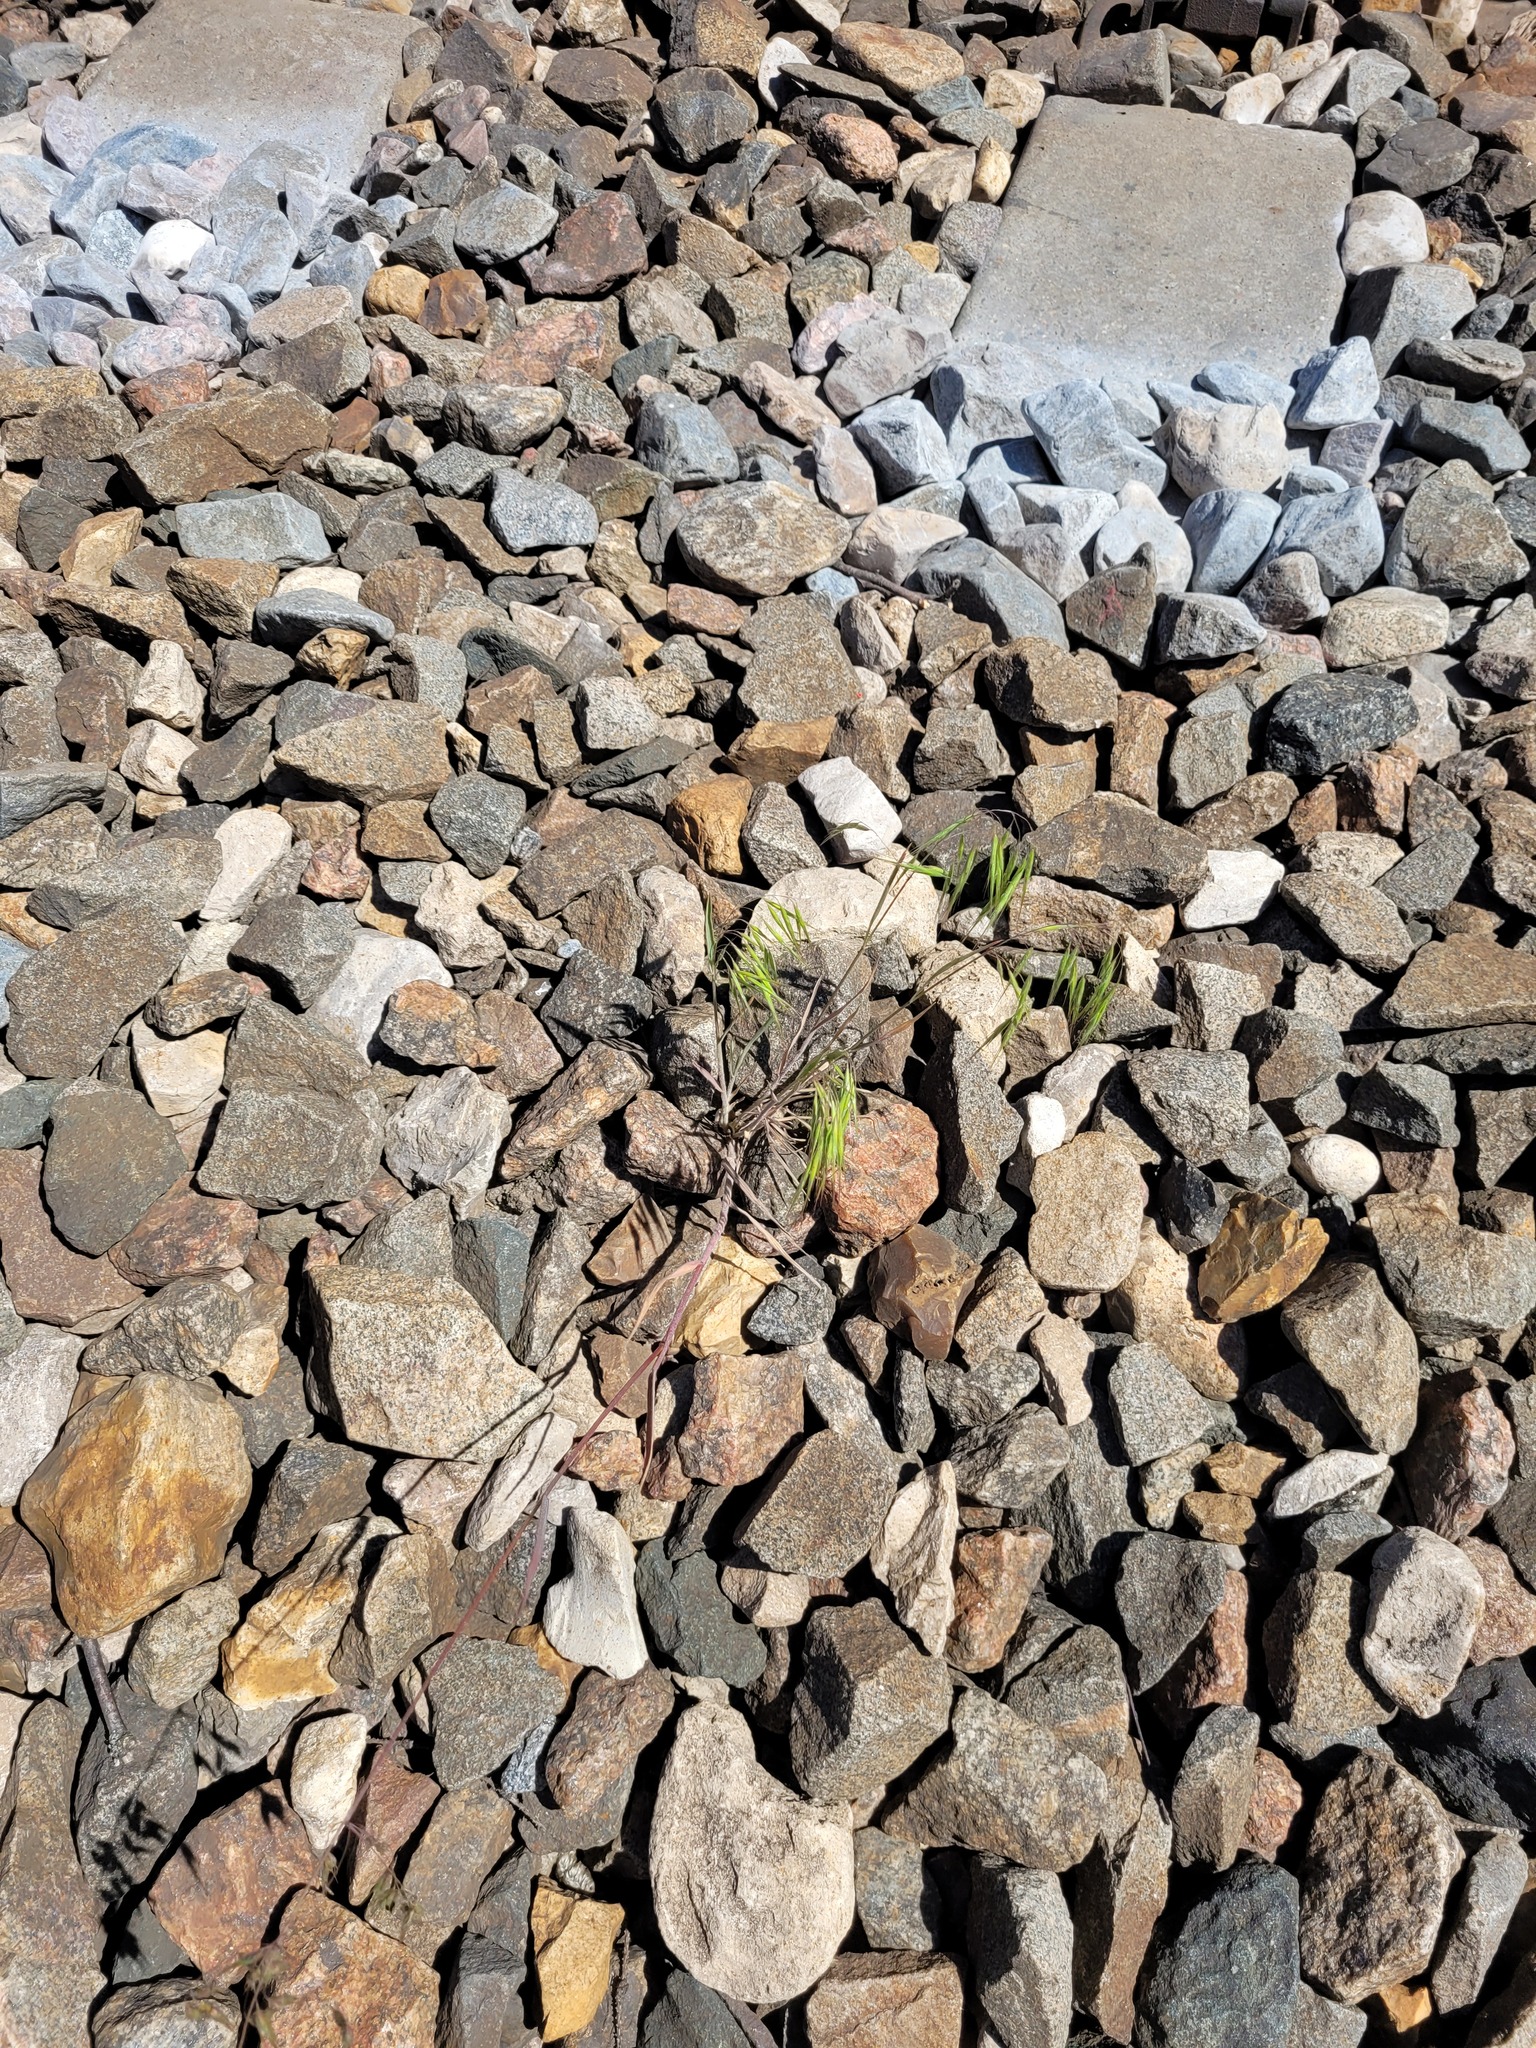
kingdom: Plantae
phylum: Tracheophyta
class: Liliopsida
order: Poales
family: Poaceae
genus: Bromus
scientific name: Bromus tectorum
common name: Cheatgrass
